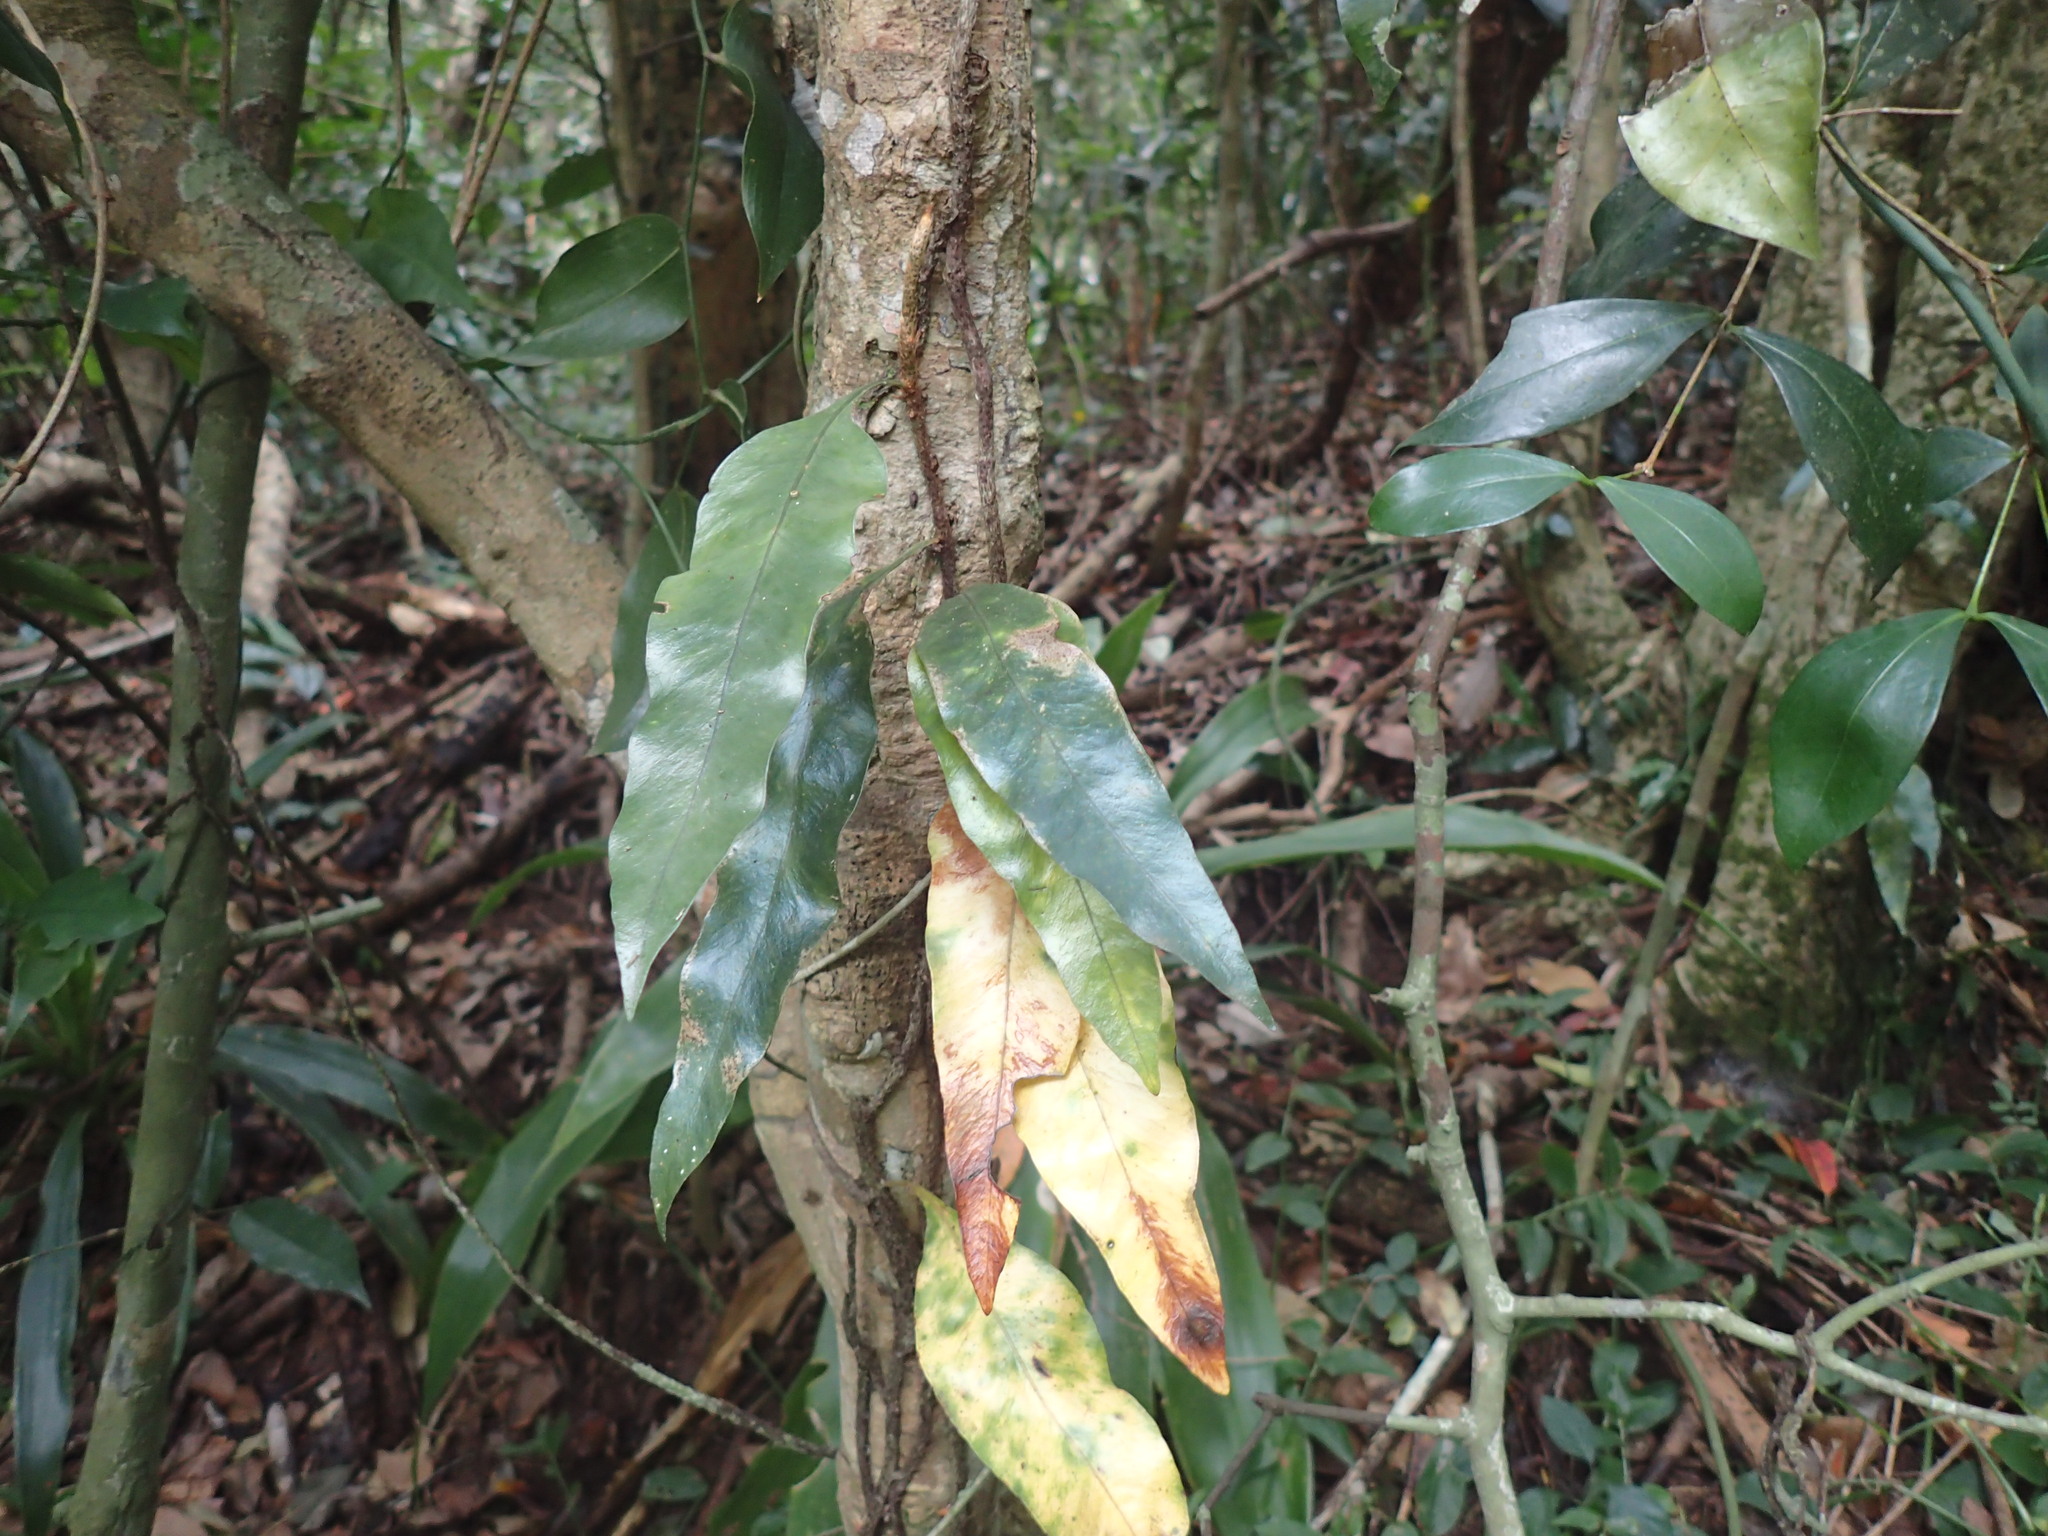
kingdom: Plantae
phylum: Tracheophyta
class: Polypodiopsida
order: Polypodiales
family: Polypodiaceae
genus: Microgramma
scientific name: Microgramma mauritiana
